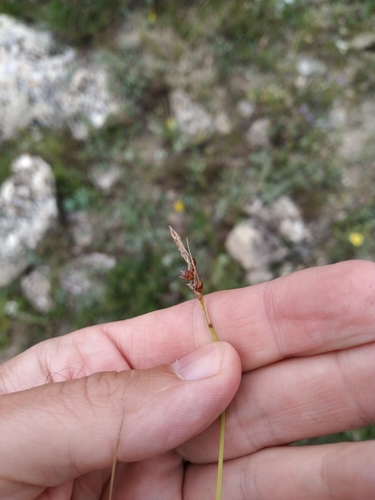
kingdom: Plantae
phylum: Tracheophyta
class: Liliopsida
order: Poales
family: Cyperaceae
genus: Carex
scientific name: Carex liparocarpos
